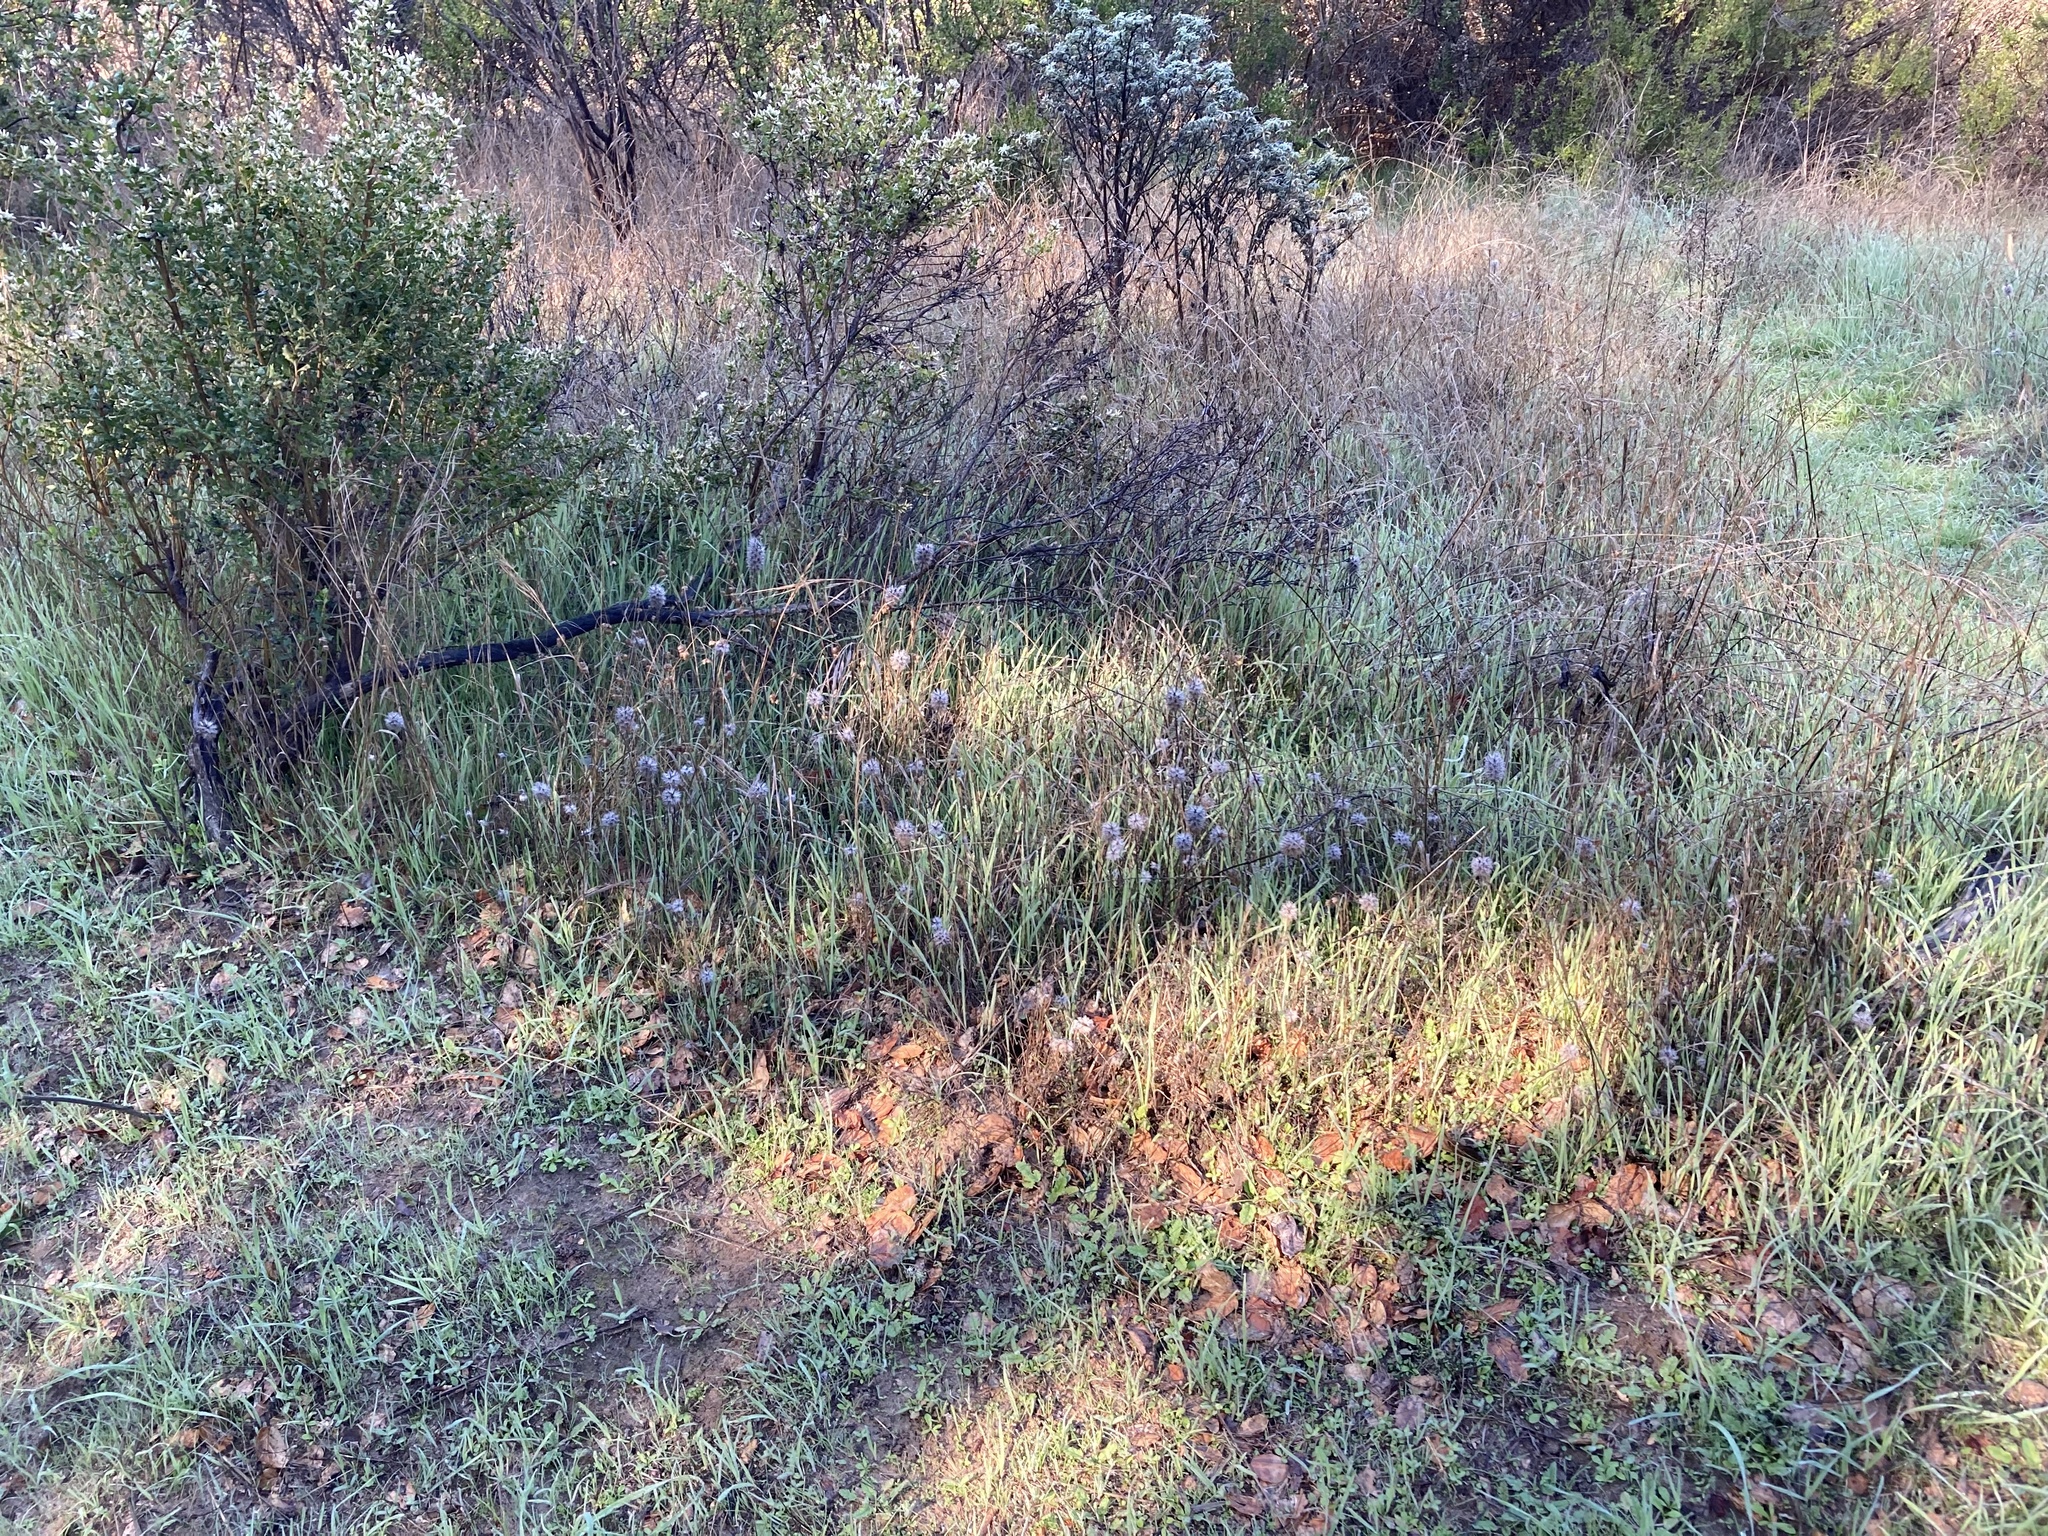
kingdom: Plantae
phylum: Tracheophyta
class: Magnoliopsida
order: Fabales
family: Fabaceae
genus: Trifolium
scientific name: Trifolium angustifolium
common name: Narrow clover
